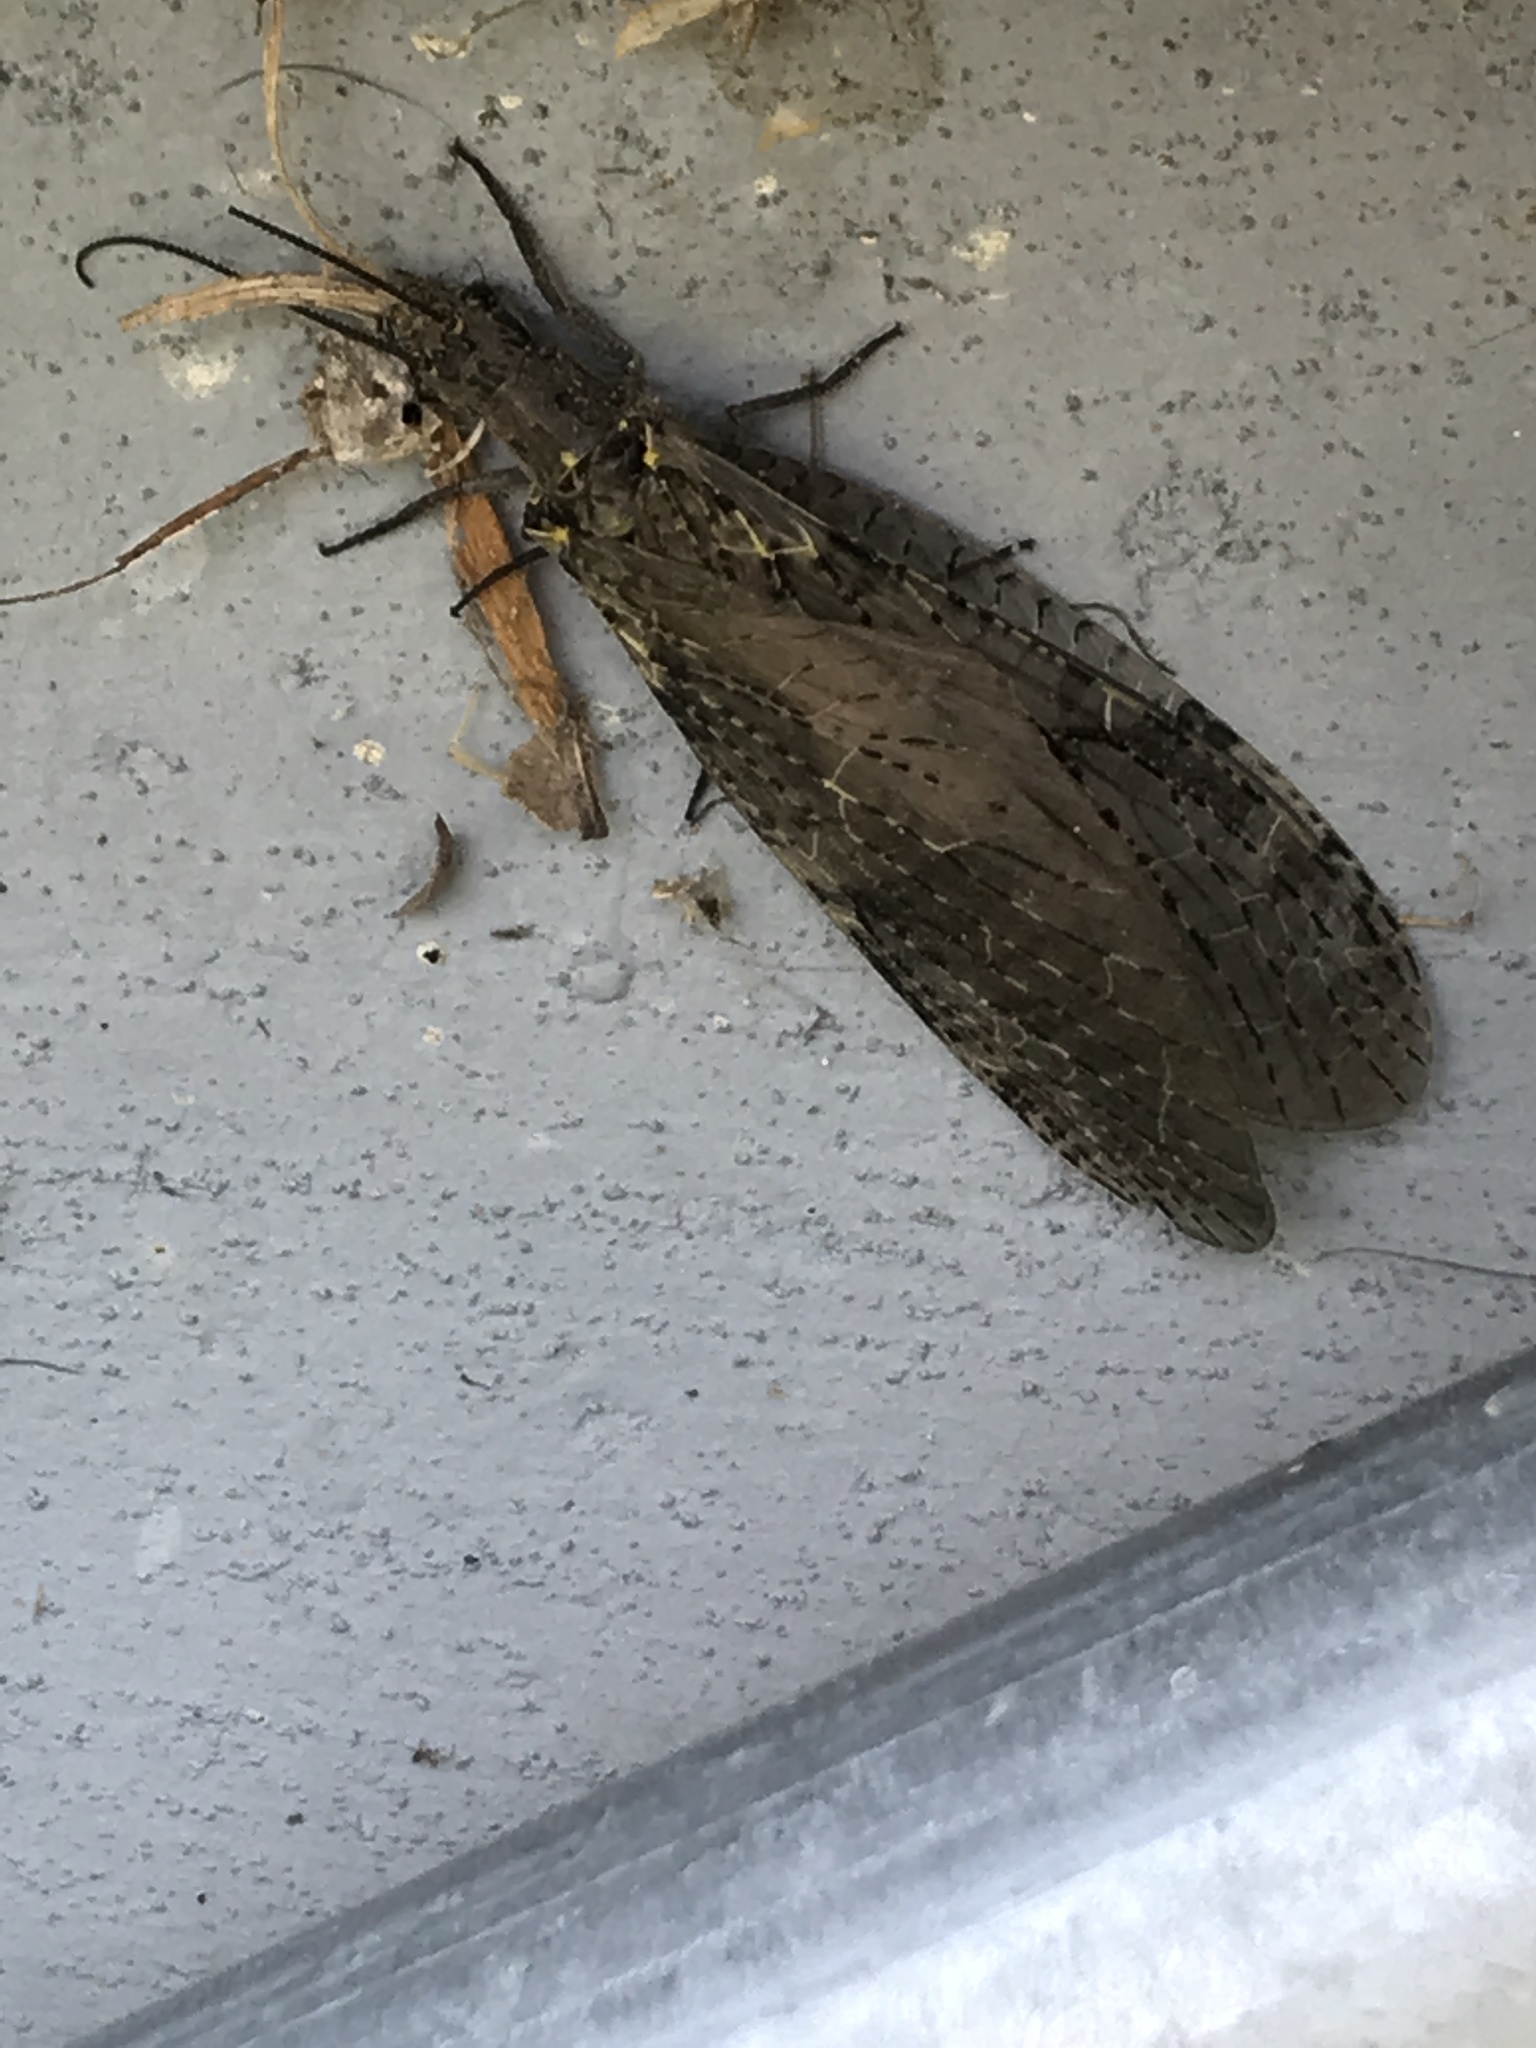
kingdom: Animalia
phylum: Arthropoda
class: Insecta
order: Megaloptera
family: Corydalidae
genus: Chauliodes
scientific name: Chauliodes rastricornis
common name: Spring fishfly
